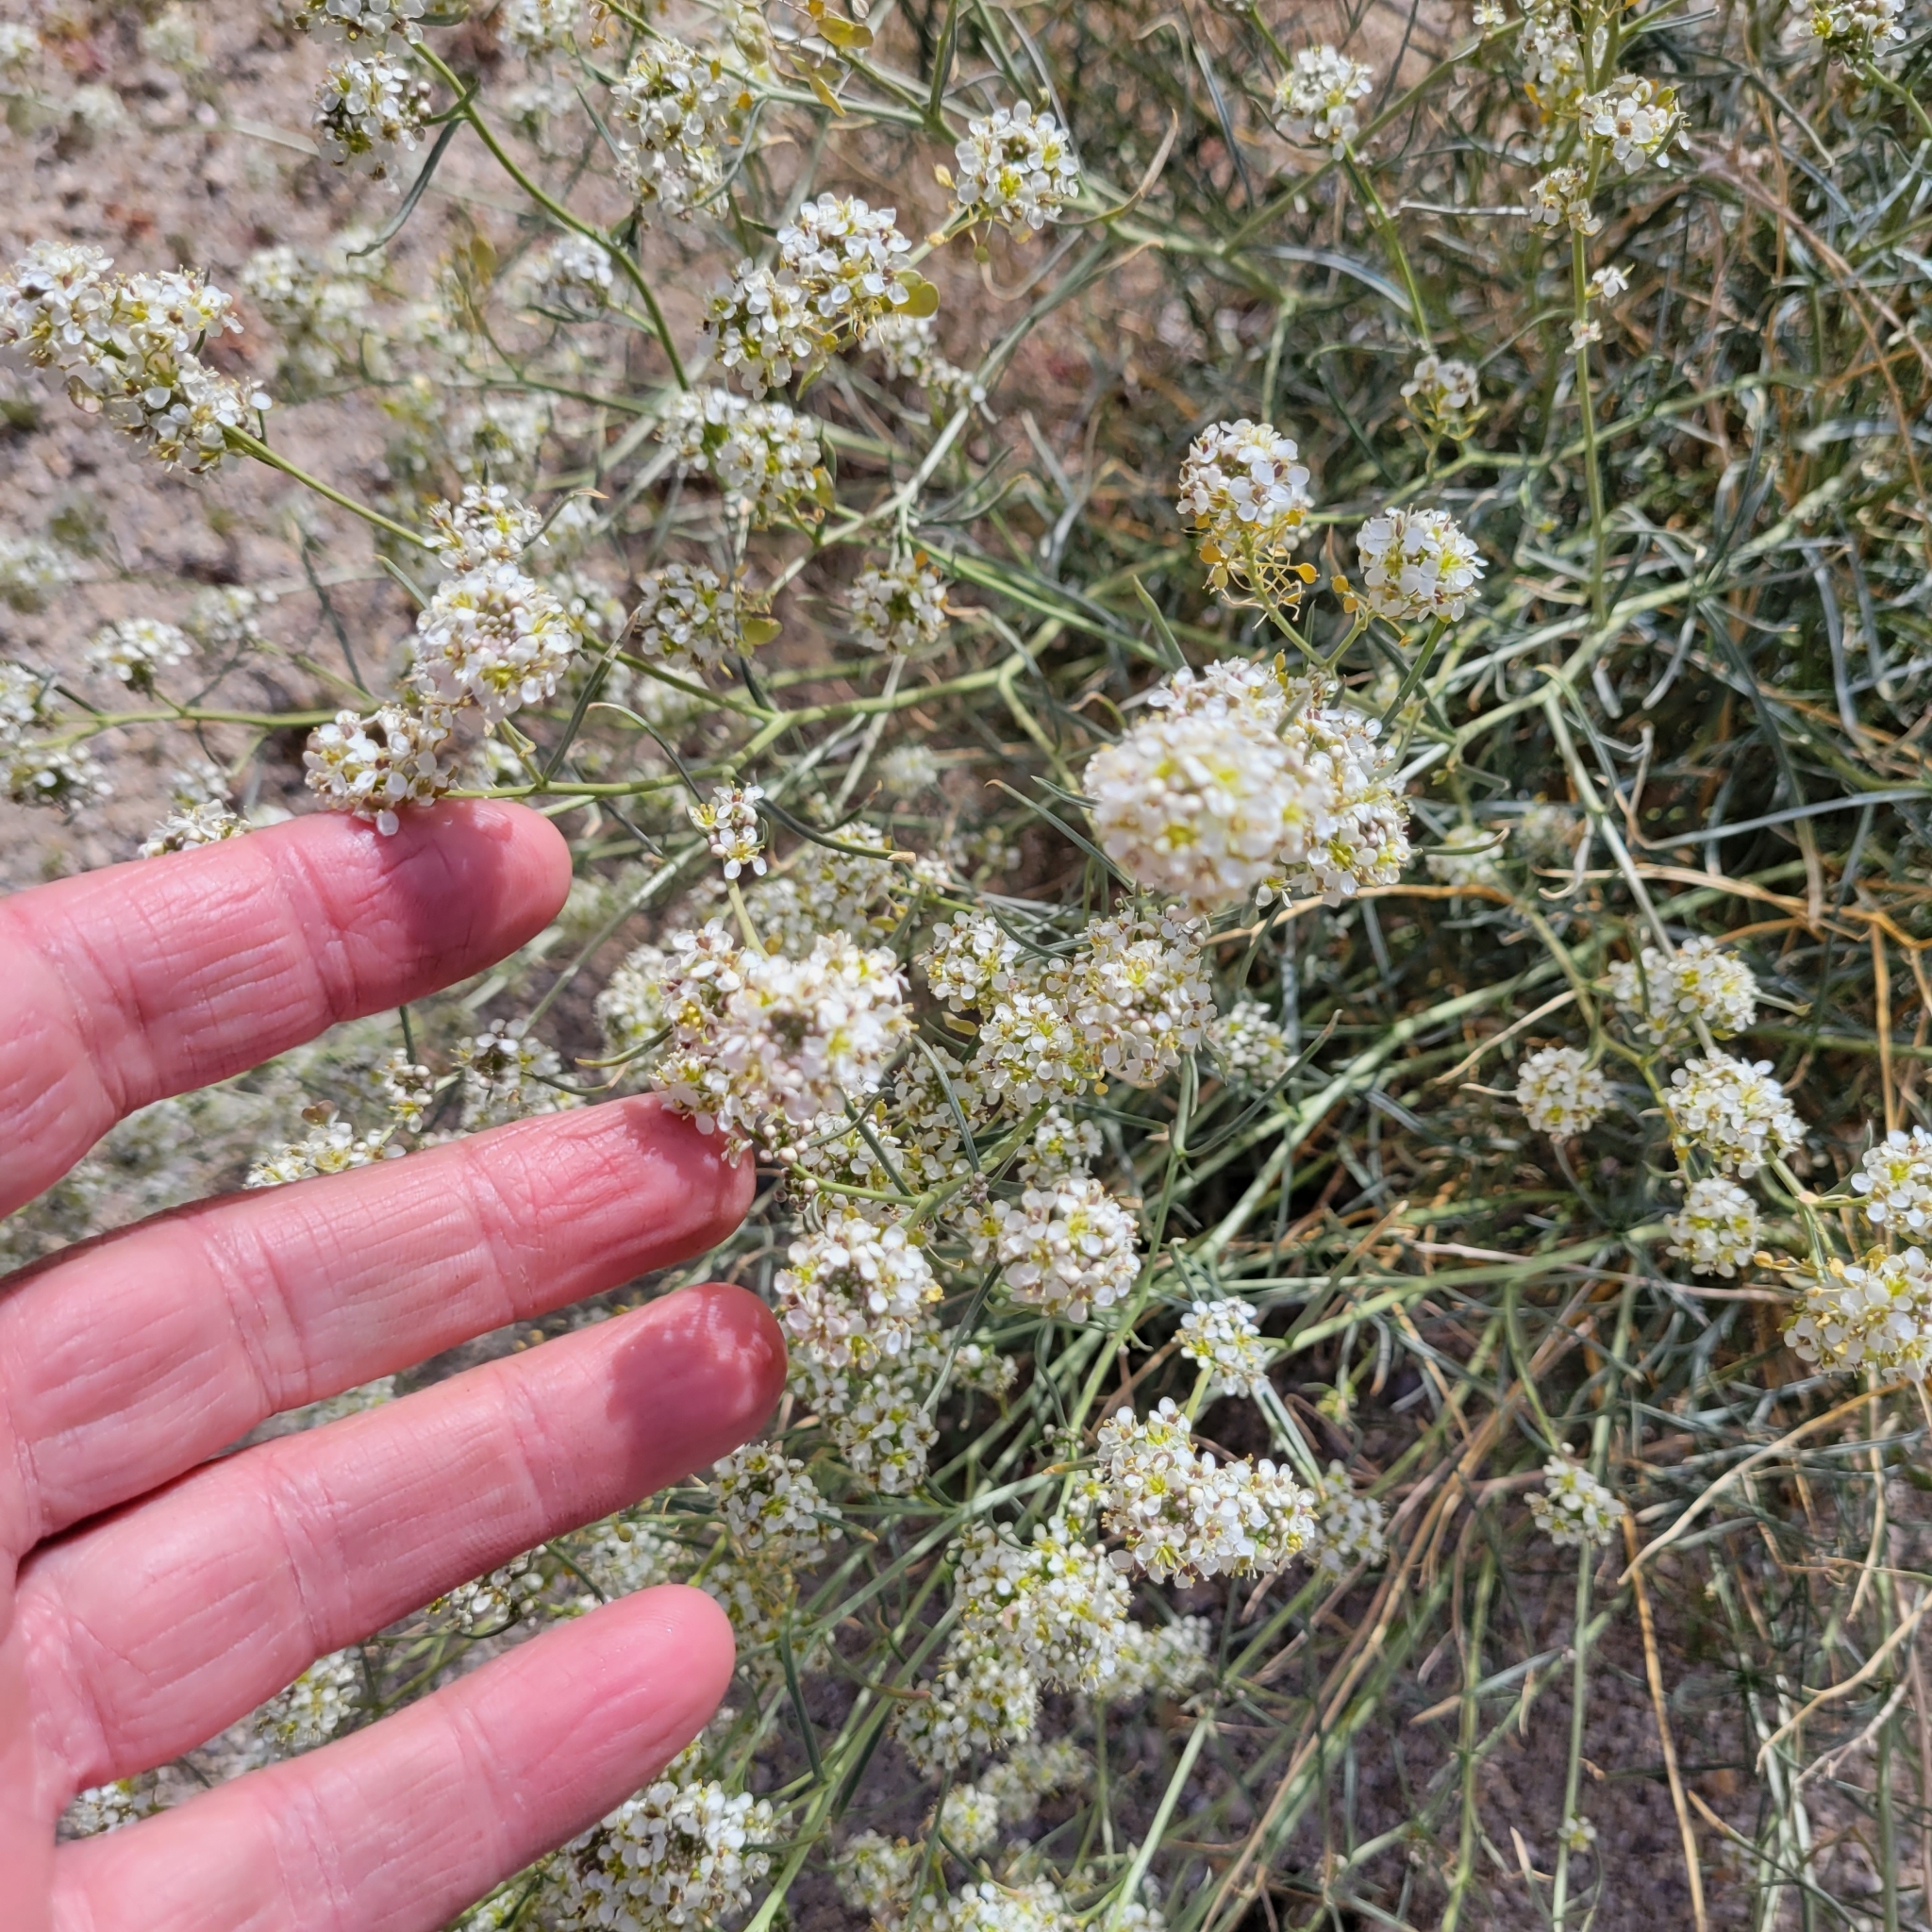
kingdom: Plantae
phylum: Tracheophyta
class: Magnoliopsida
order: Brassicales
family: Brassicaceae
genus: Lepidium
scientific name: Lepidium fremontii
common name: Fremont's pepperwort
